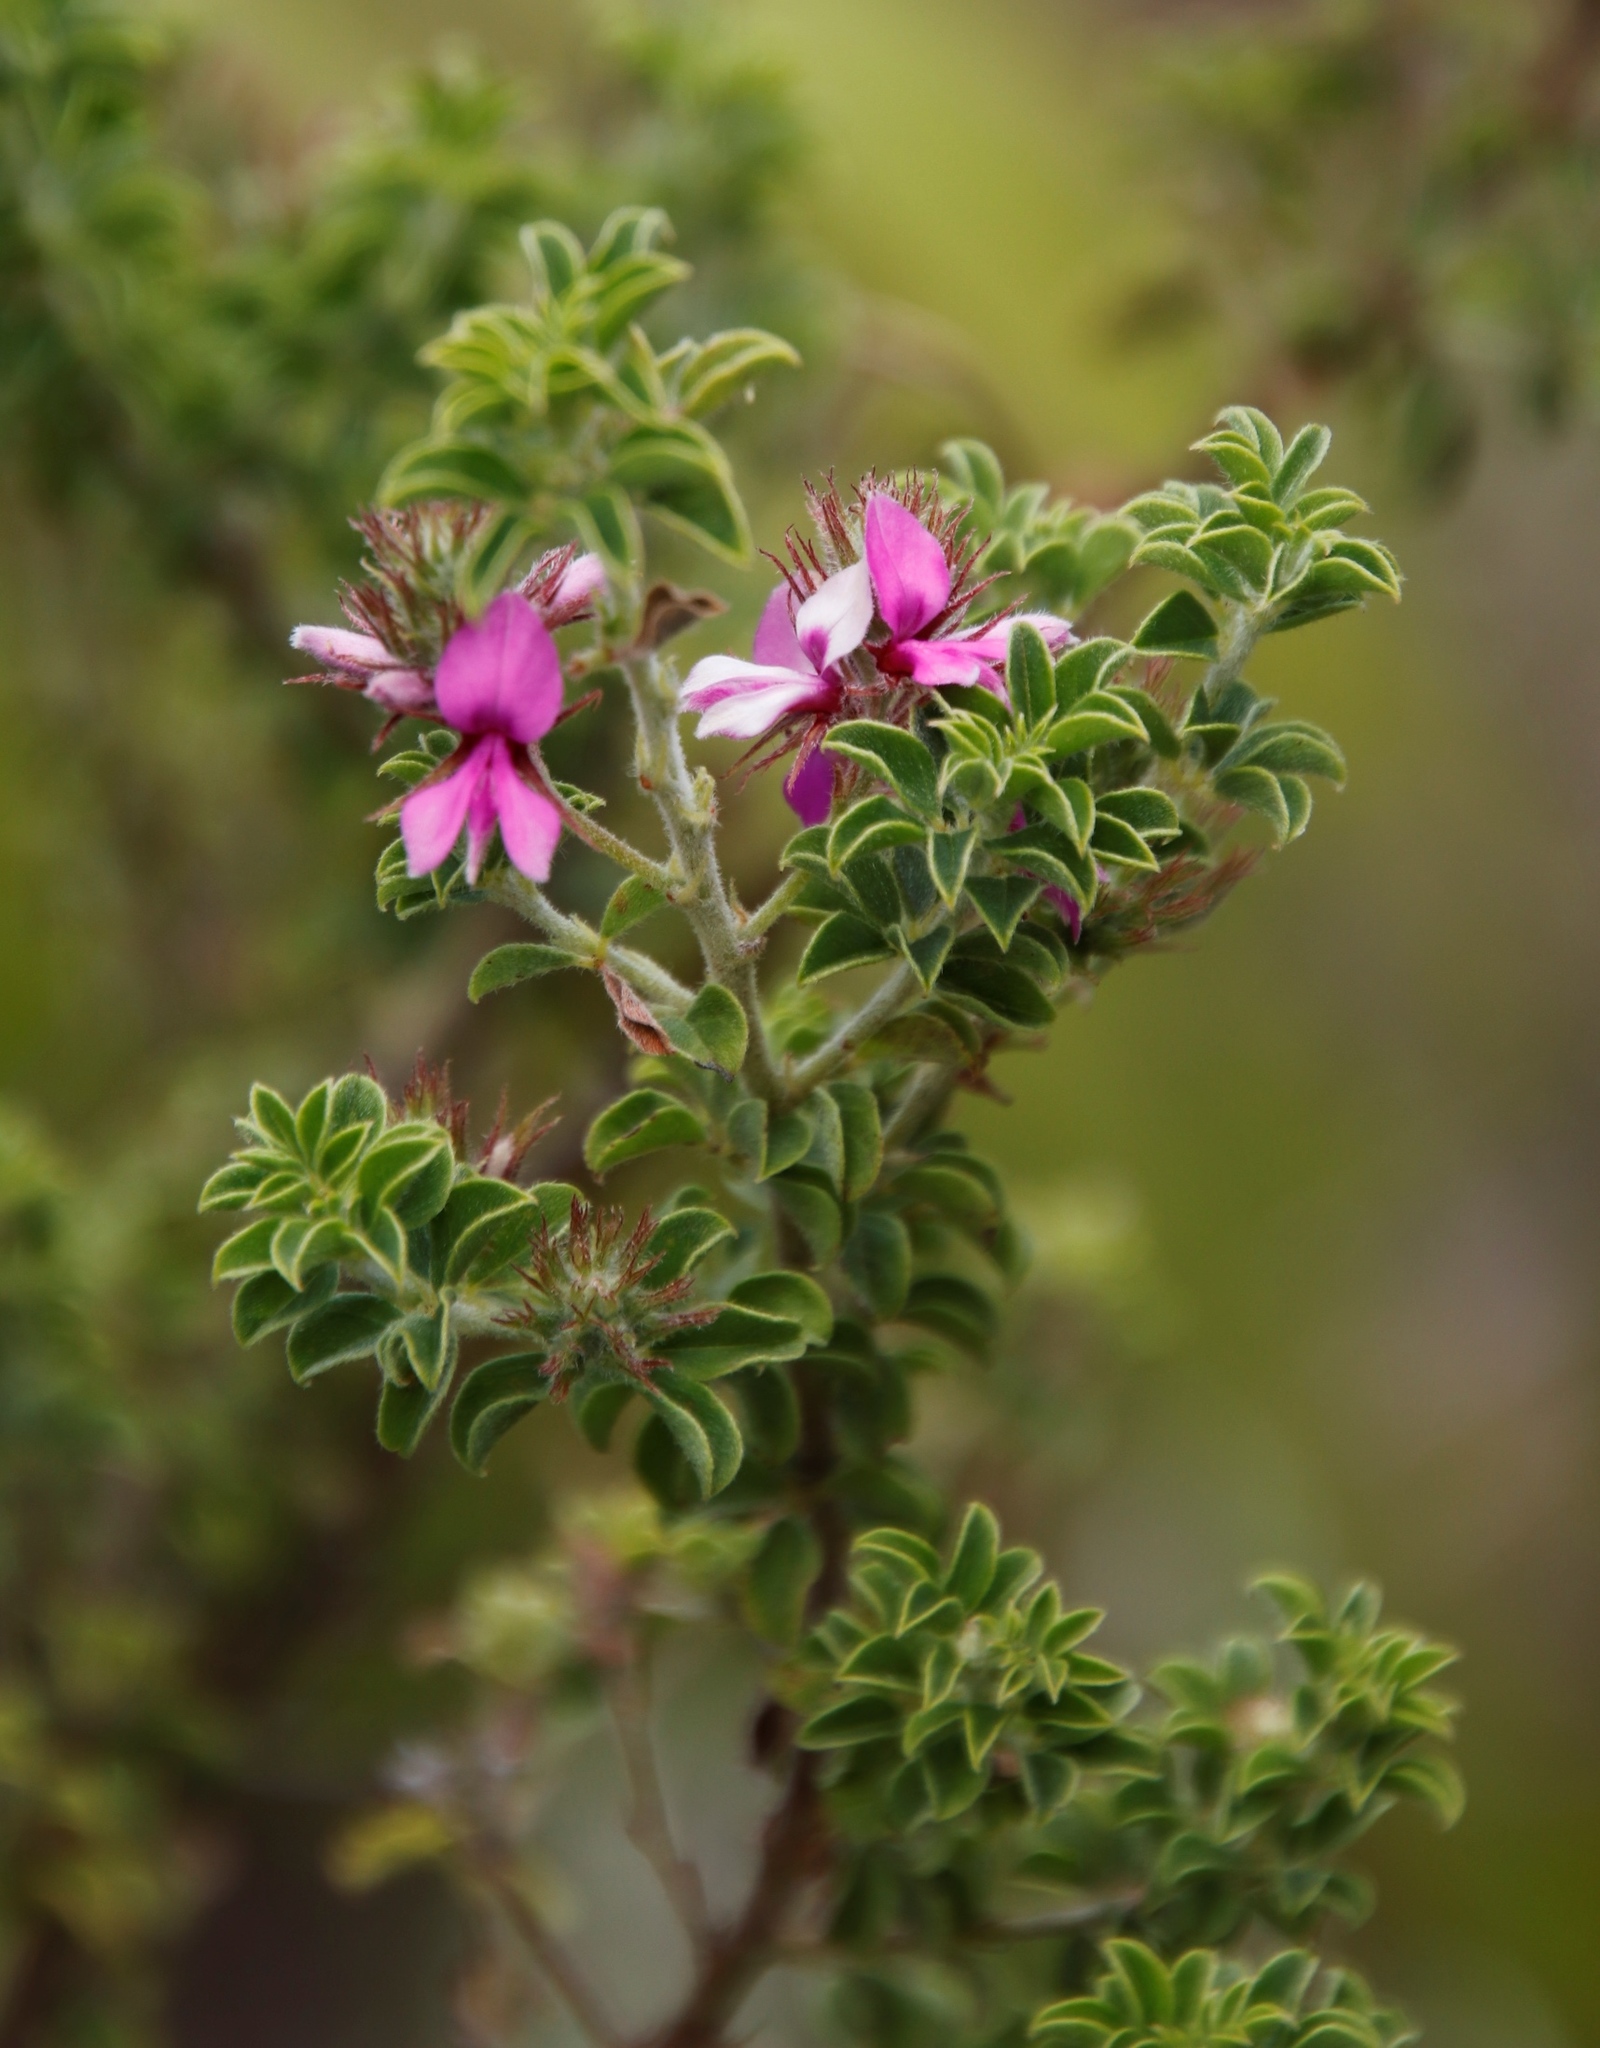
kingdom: Plantae
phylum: Tracheophyta
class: Magnoliopsida
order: Fabales
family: Fabaceae
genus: Indigofera
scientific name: Indigofera candolleana
